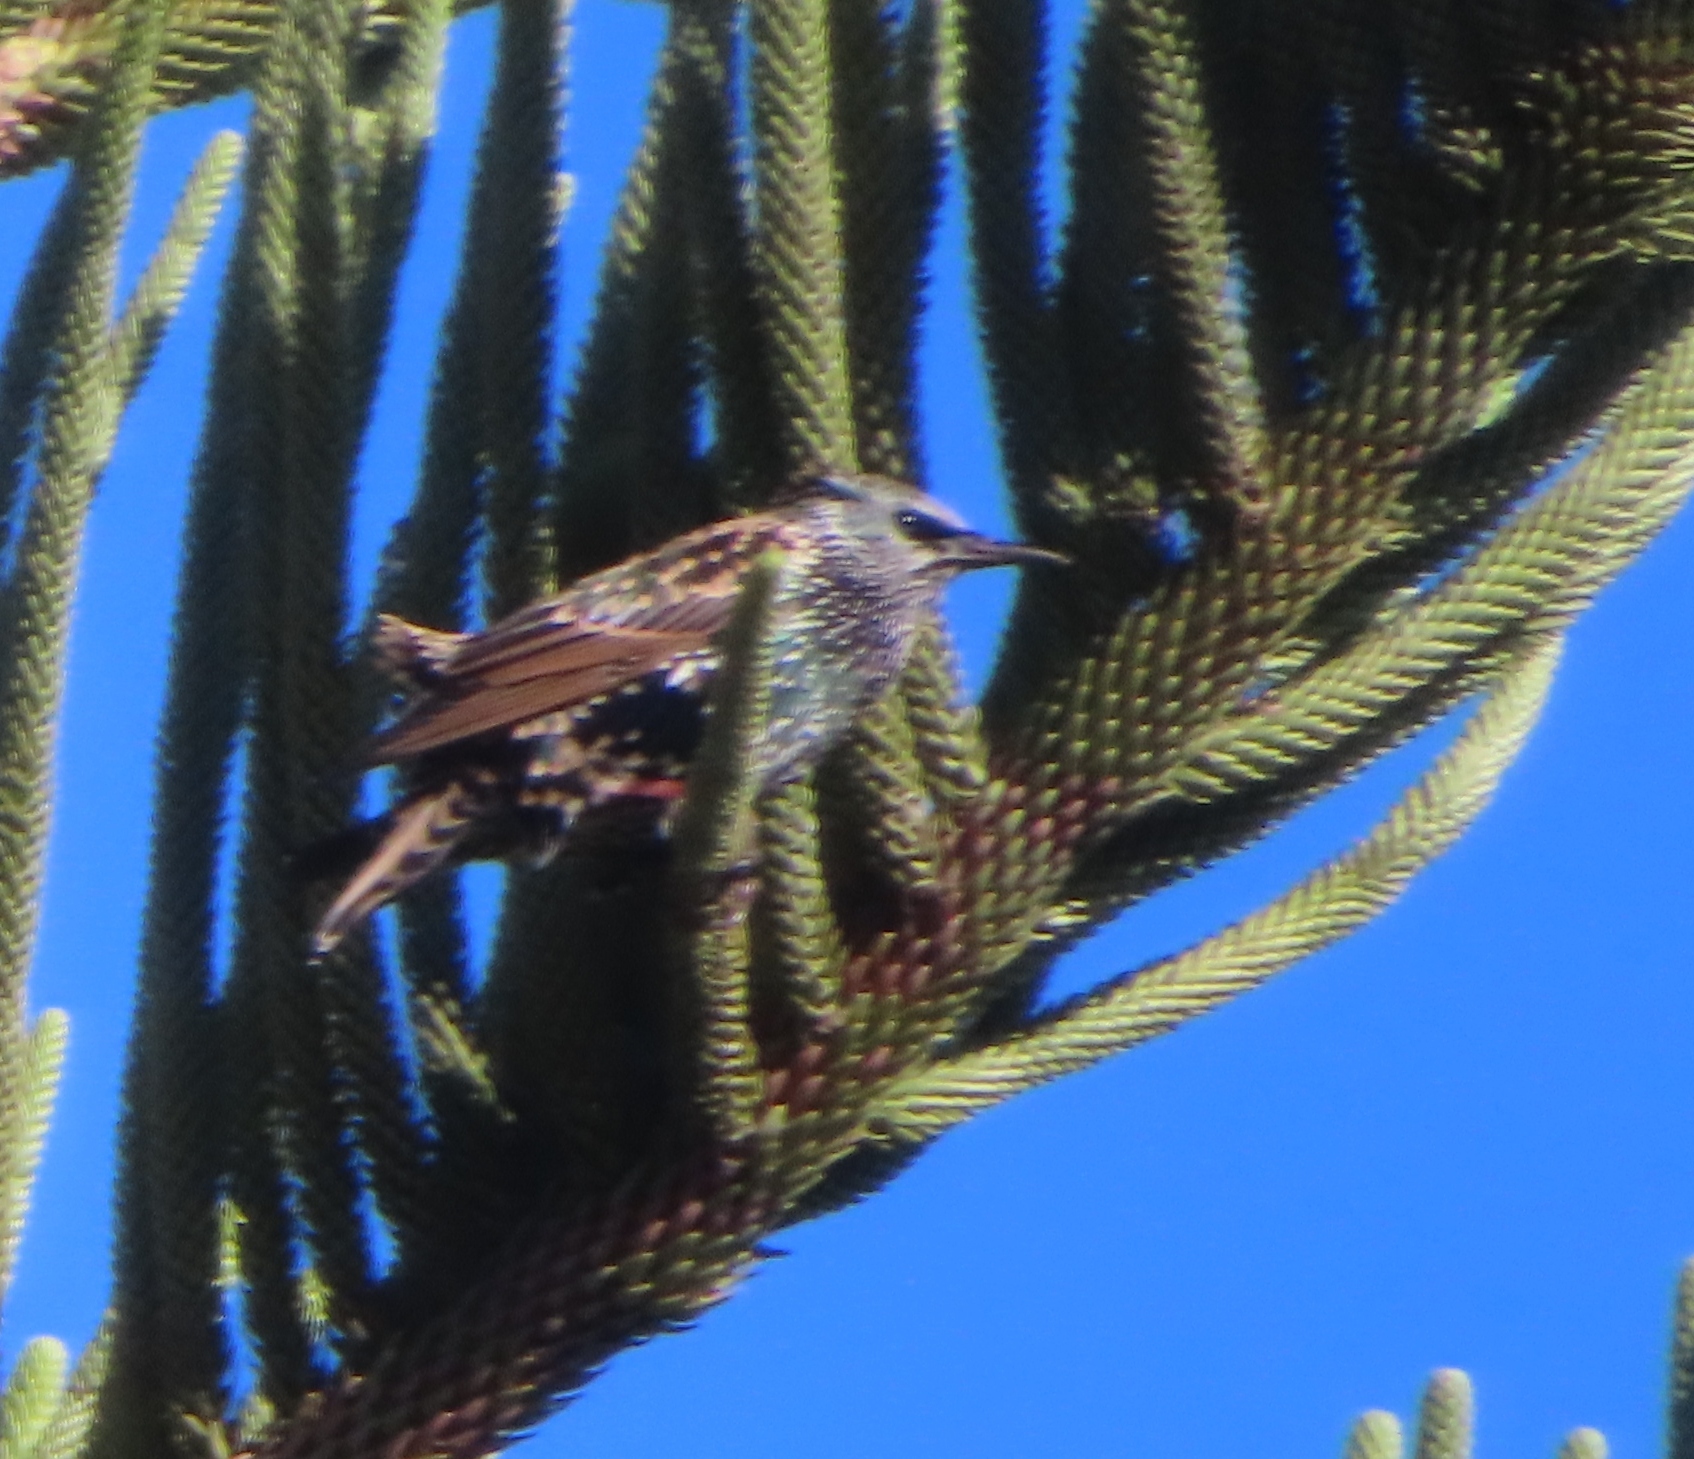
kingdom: Animalia
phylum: Chordata
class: Aves
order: Passeriformes
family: Sturnidae
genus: Sturnus
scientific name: Sturnus vulgaris
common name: Common starling
